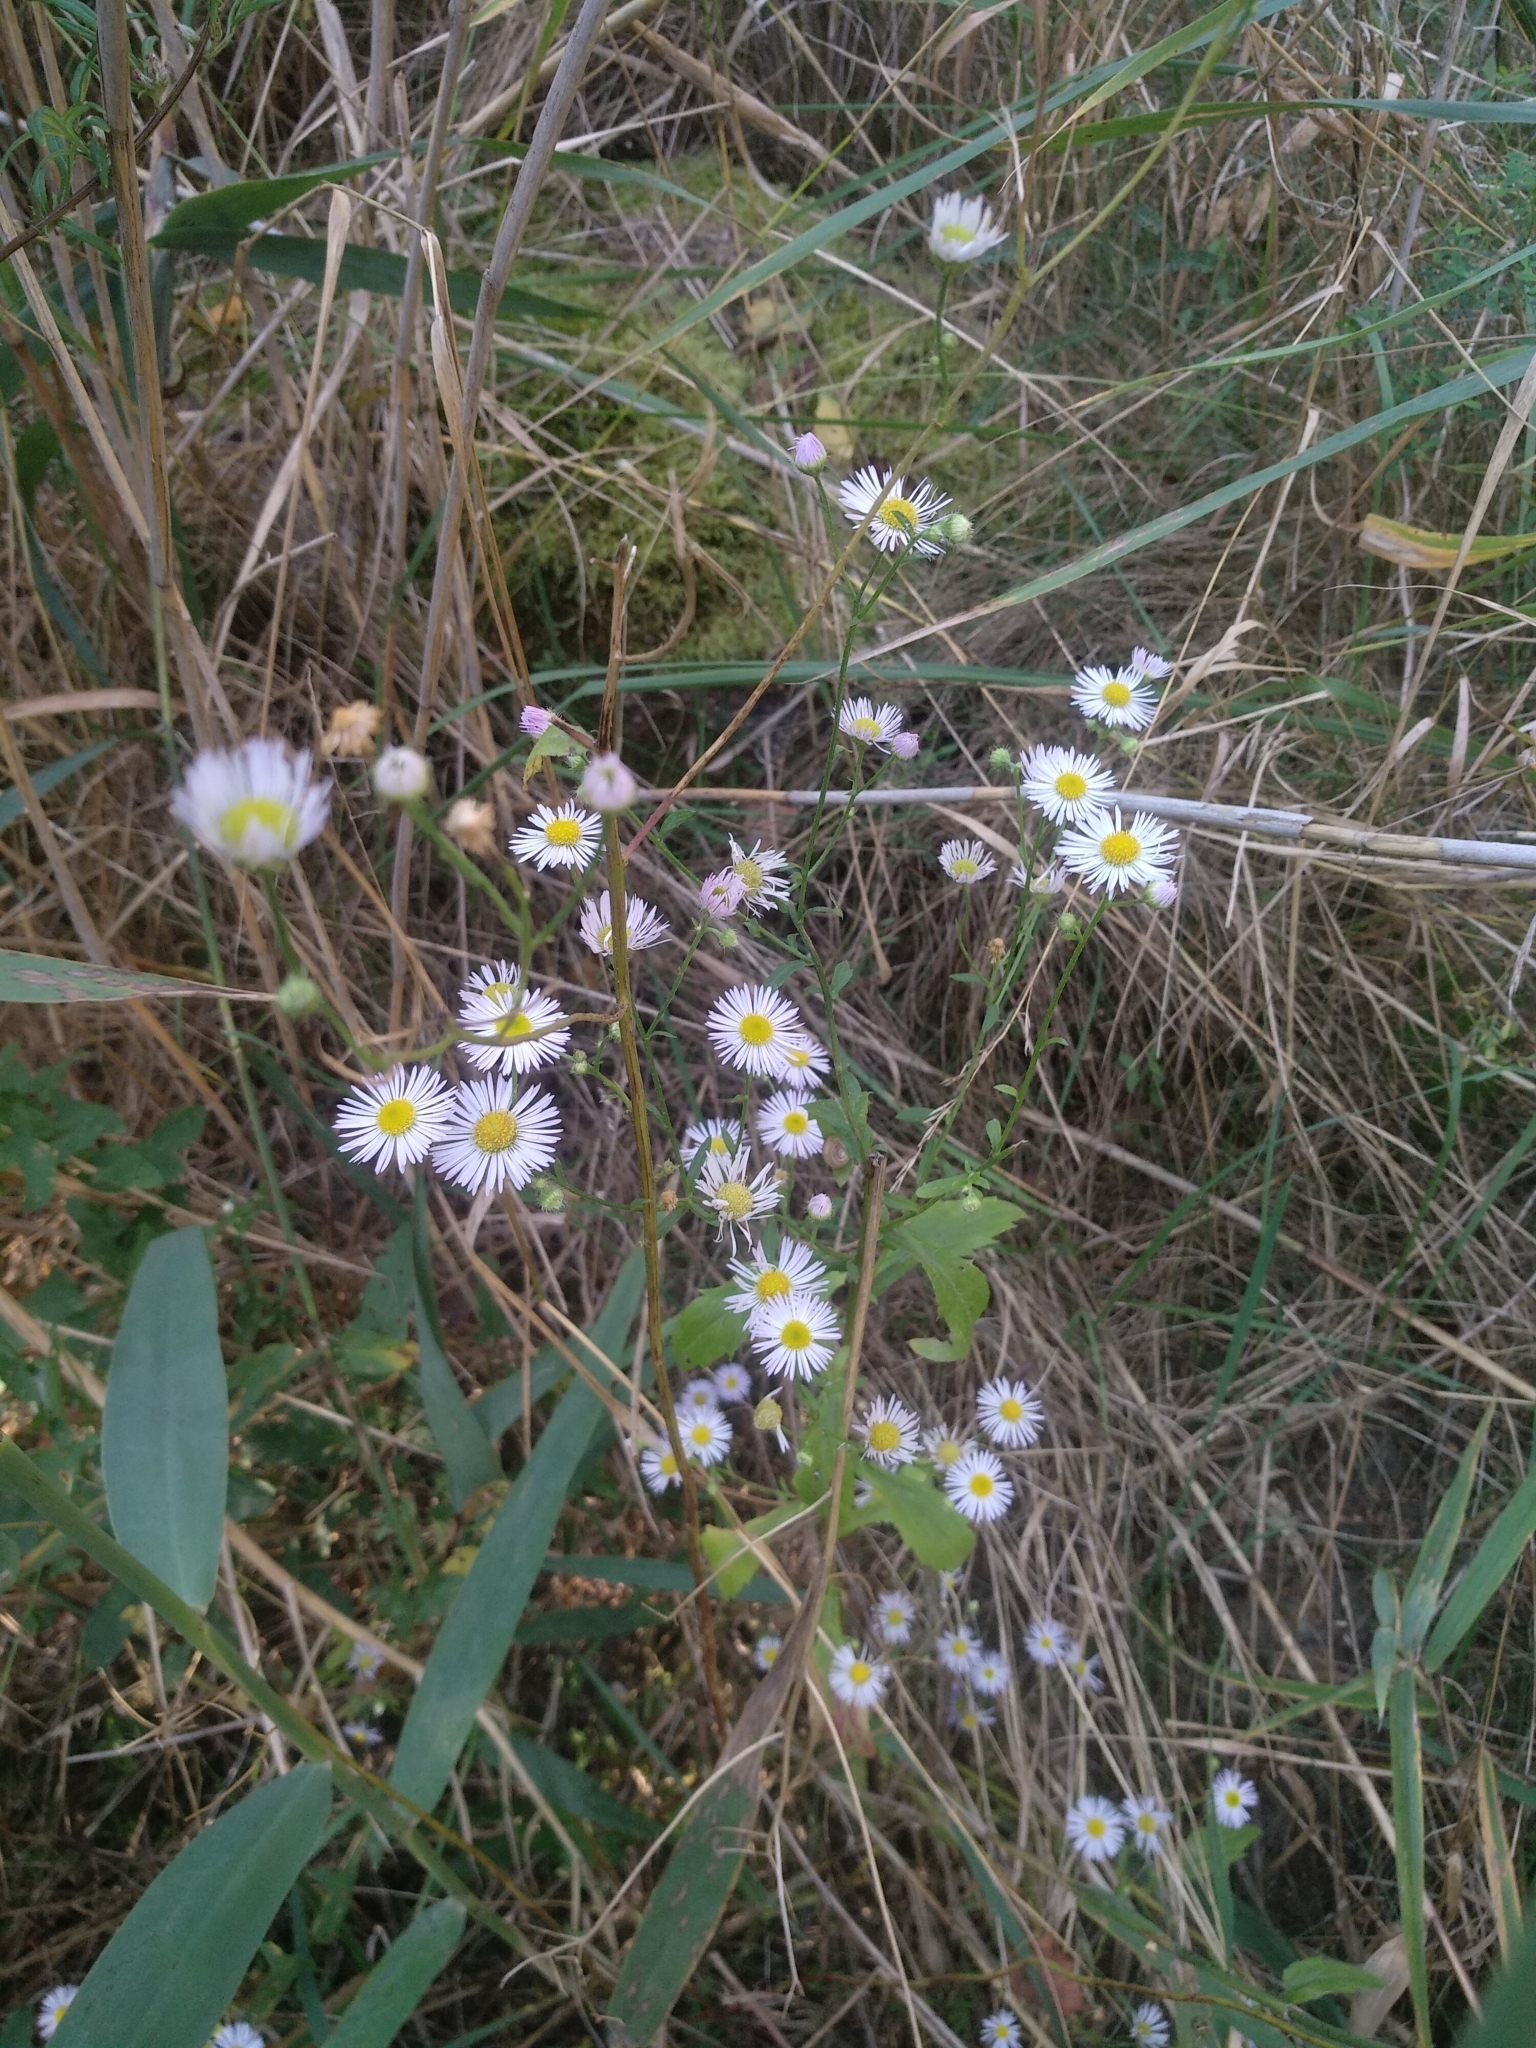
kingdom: Plantae
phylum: Tracheophyta
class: Magnoliopsida
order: Asterales
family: Asteraceae
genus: Erigeron
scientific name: Erigeron annuus
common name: Tall fleabane
